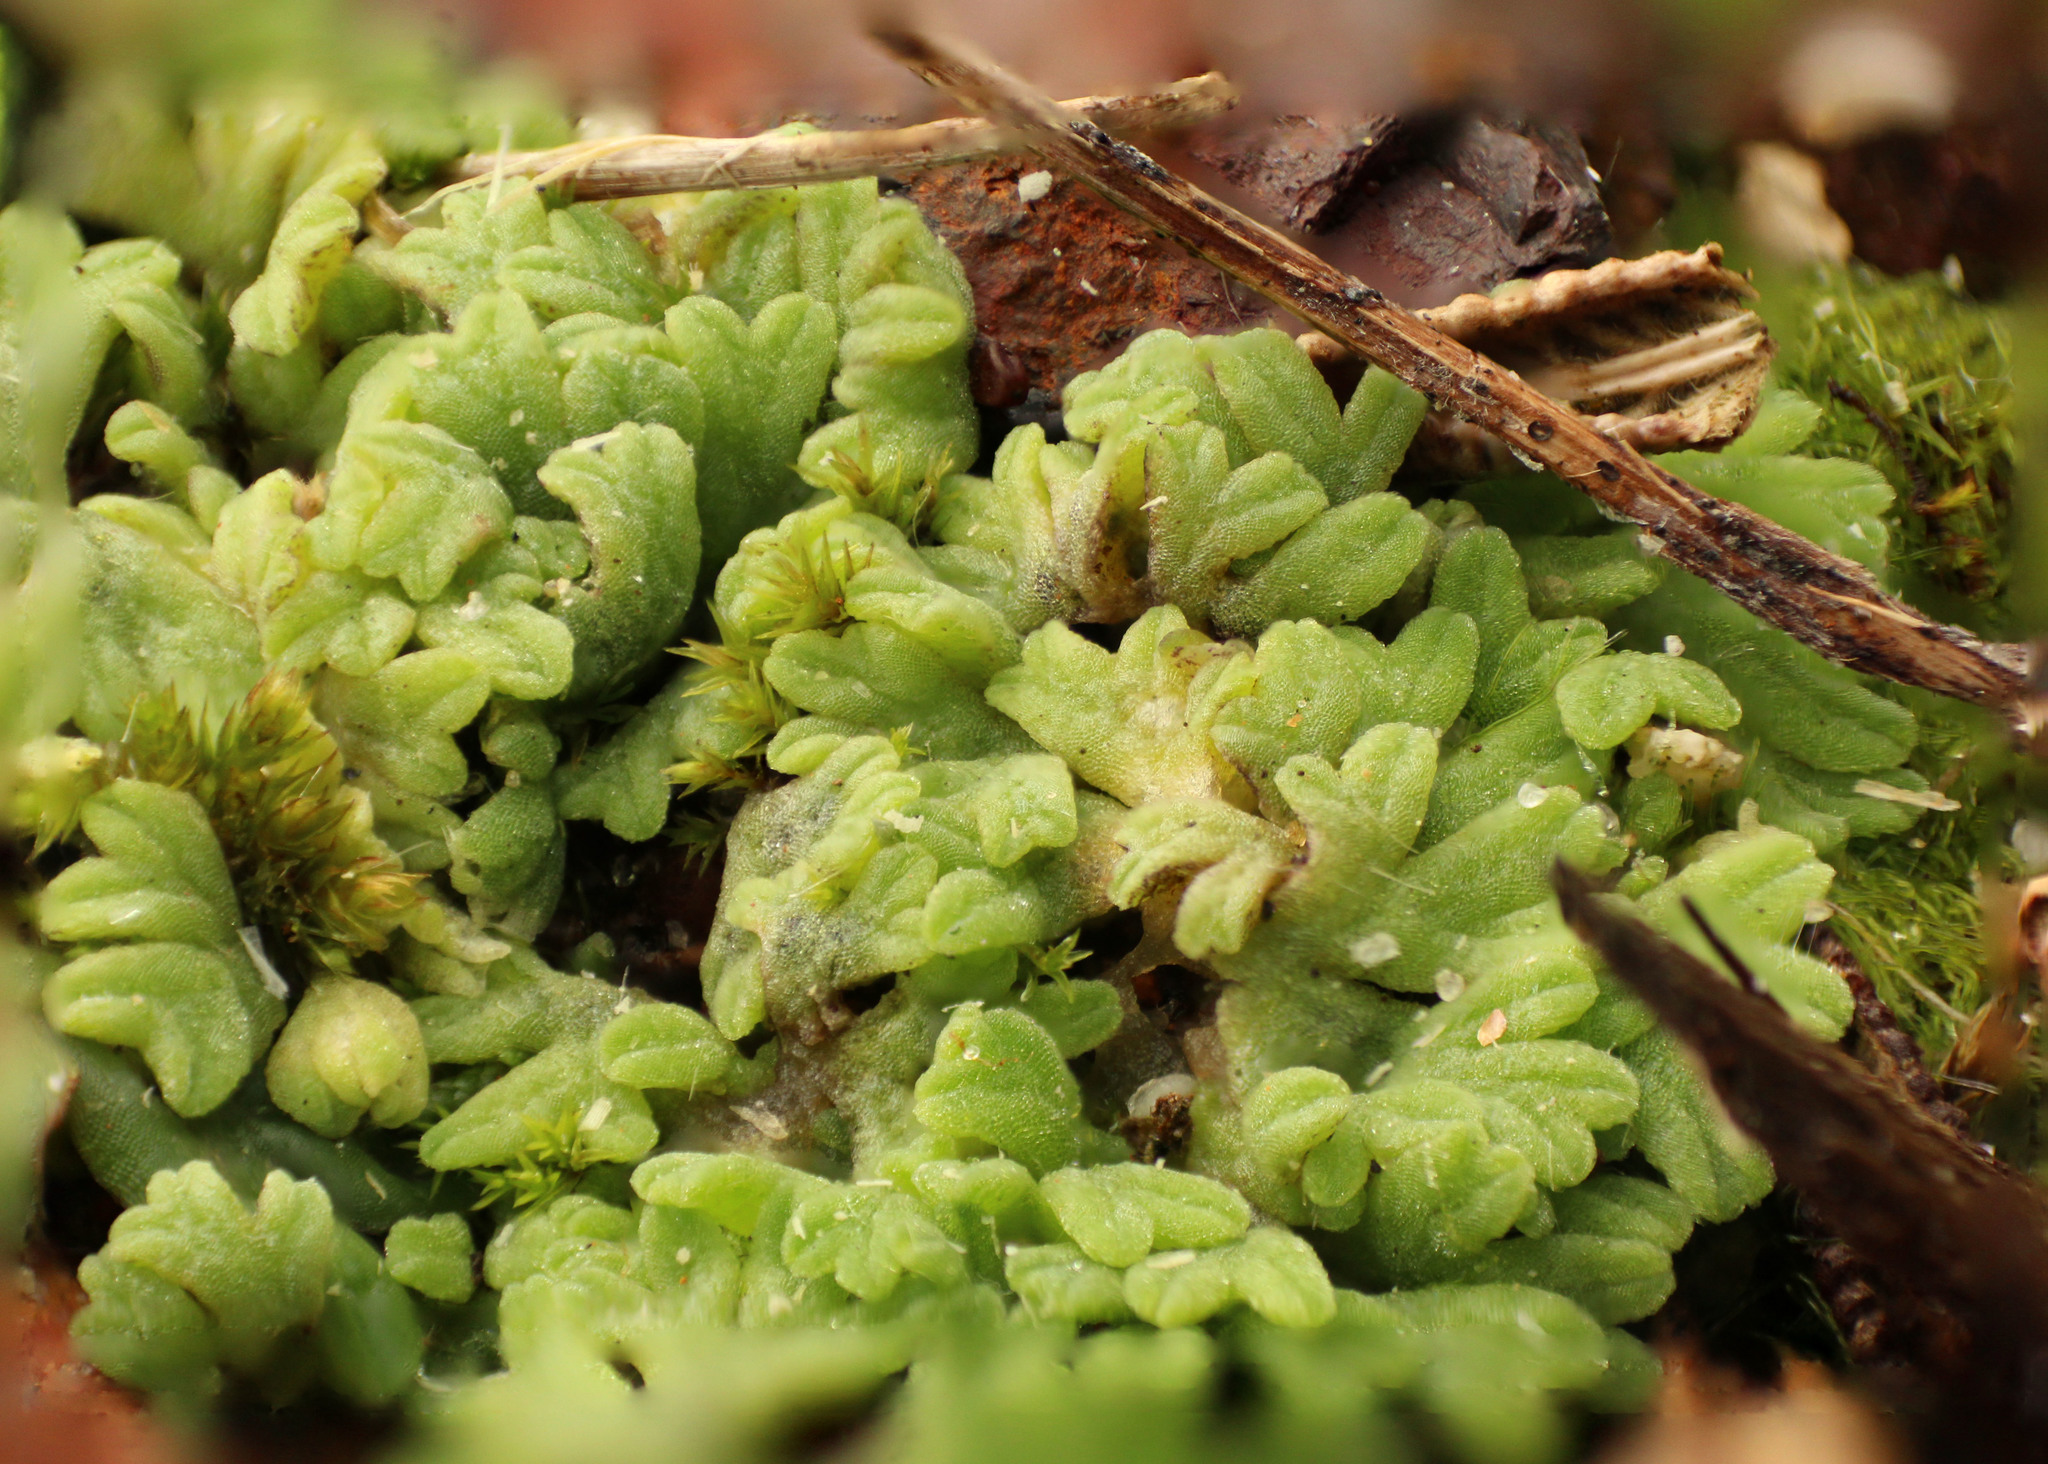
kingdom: Plantae
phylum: Marchantiophyta
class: Marchantiopsida
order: Marchantiales
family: Ricciaceae
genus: Riccia
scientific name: Riccia subbifurca
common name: Least crystalwort
